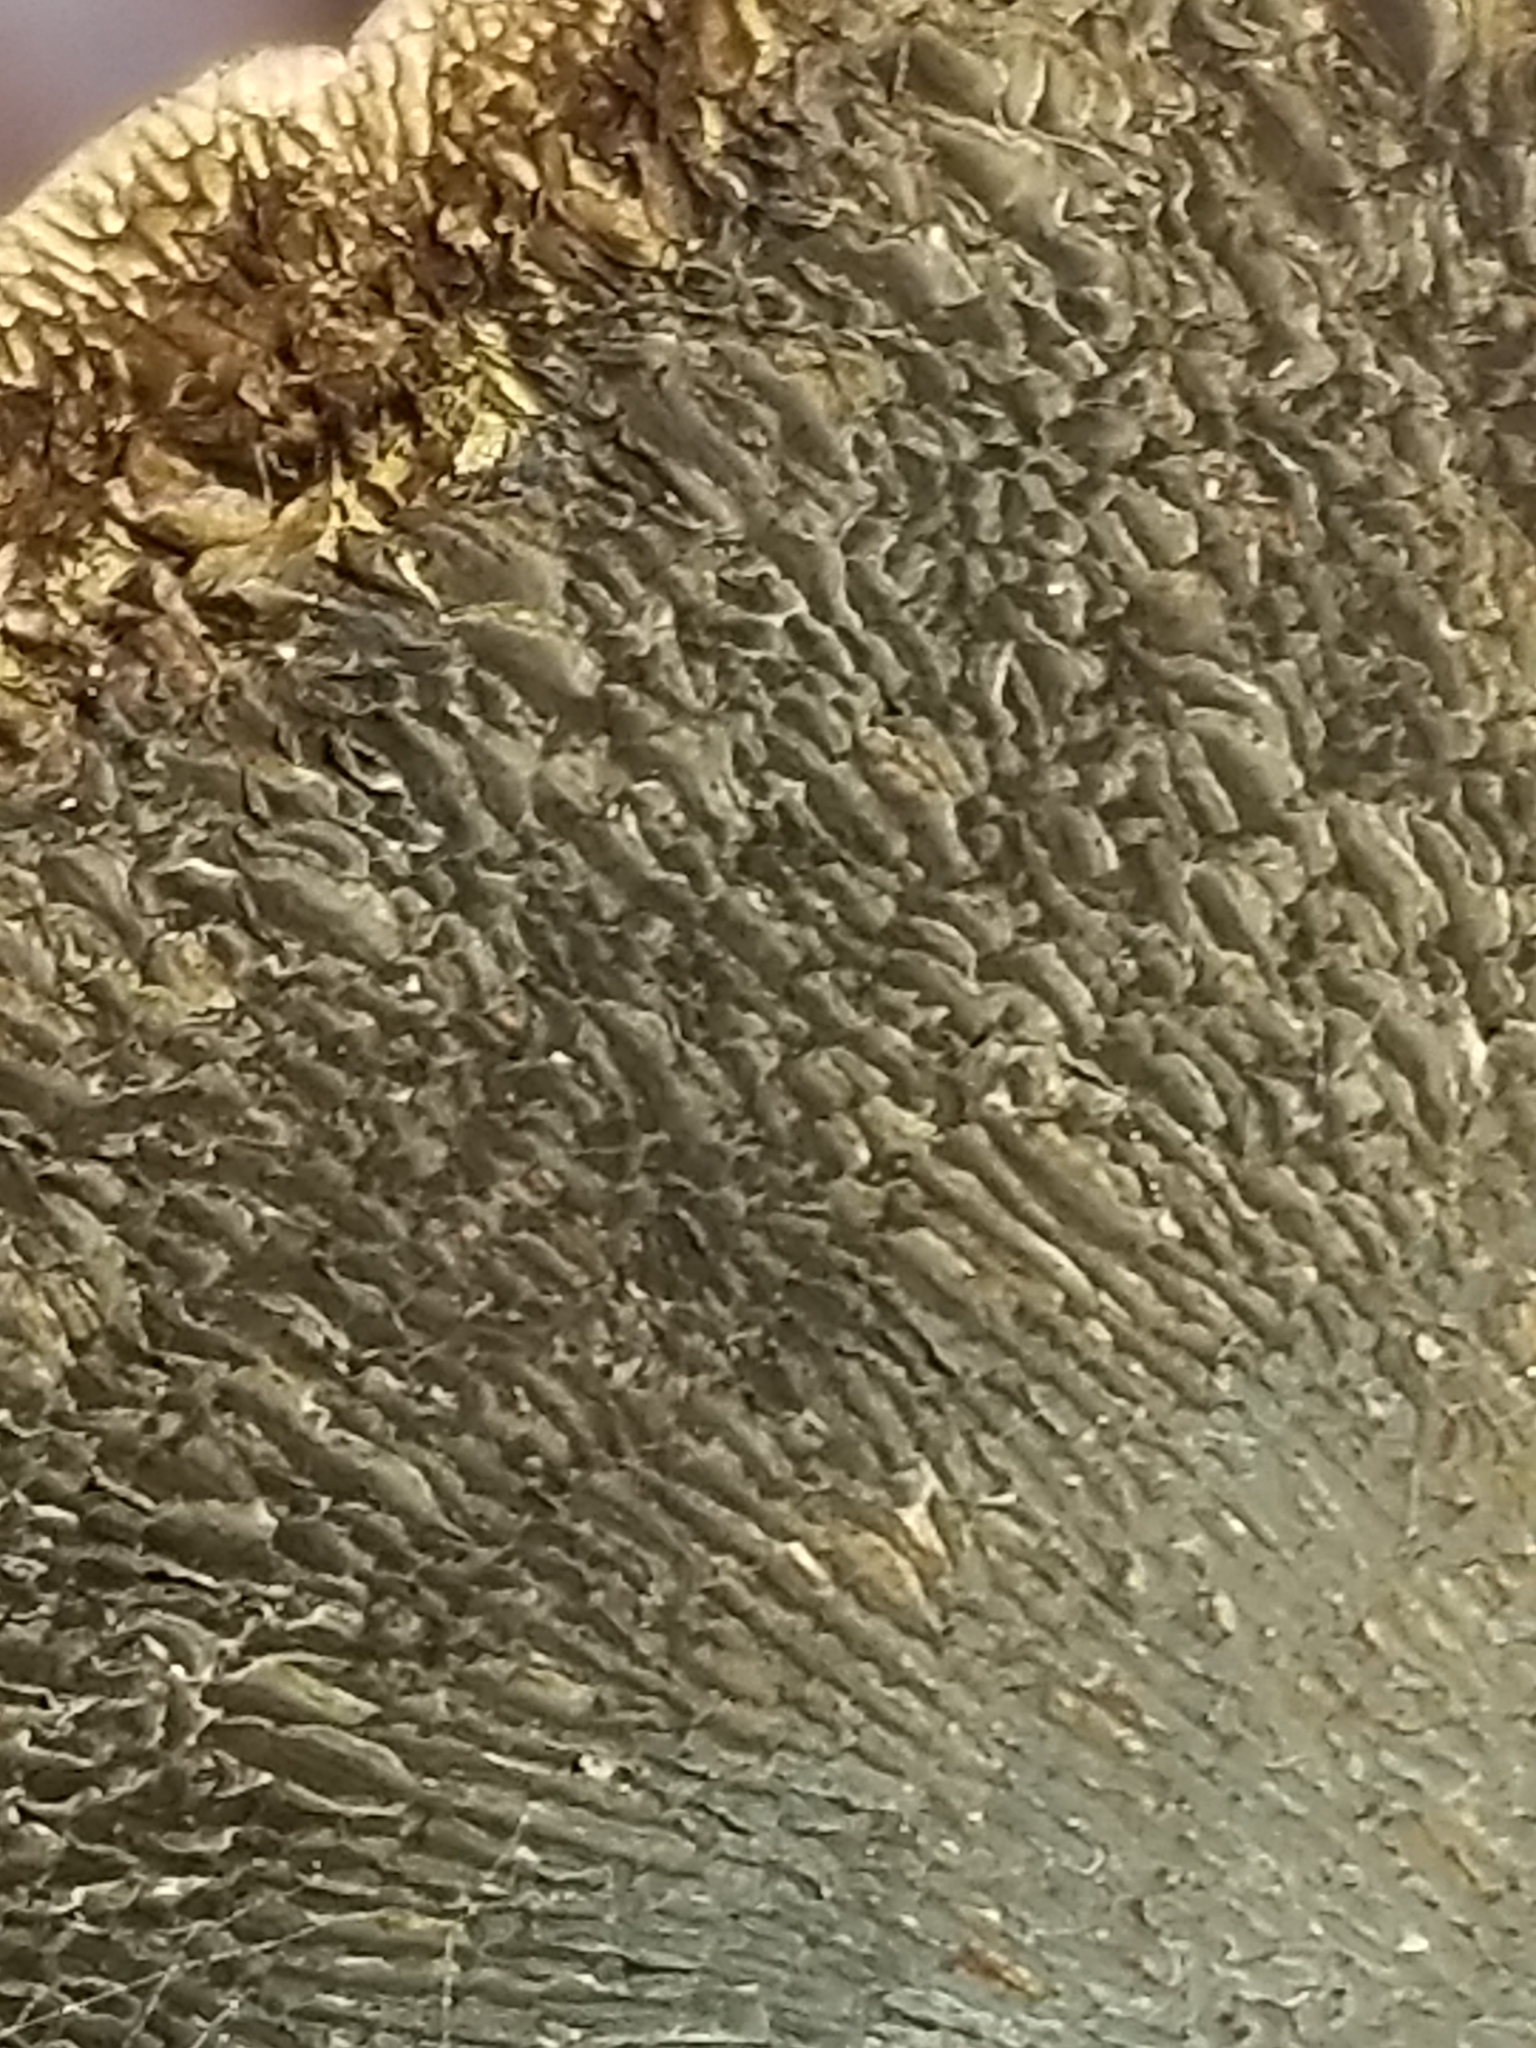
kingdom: Fungi
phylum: Basidiomycota
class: Agaricomycetes
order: Polyporales
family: Polyporaceae
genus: Daedaleopsis
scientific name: Daedaleopsis confragosa
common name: Blushing bracket
